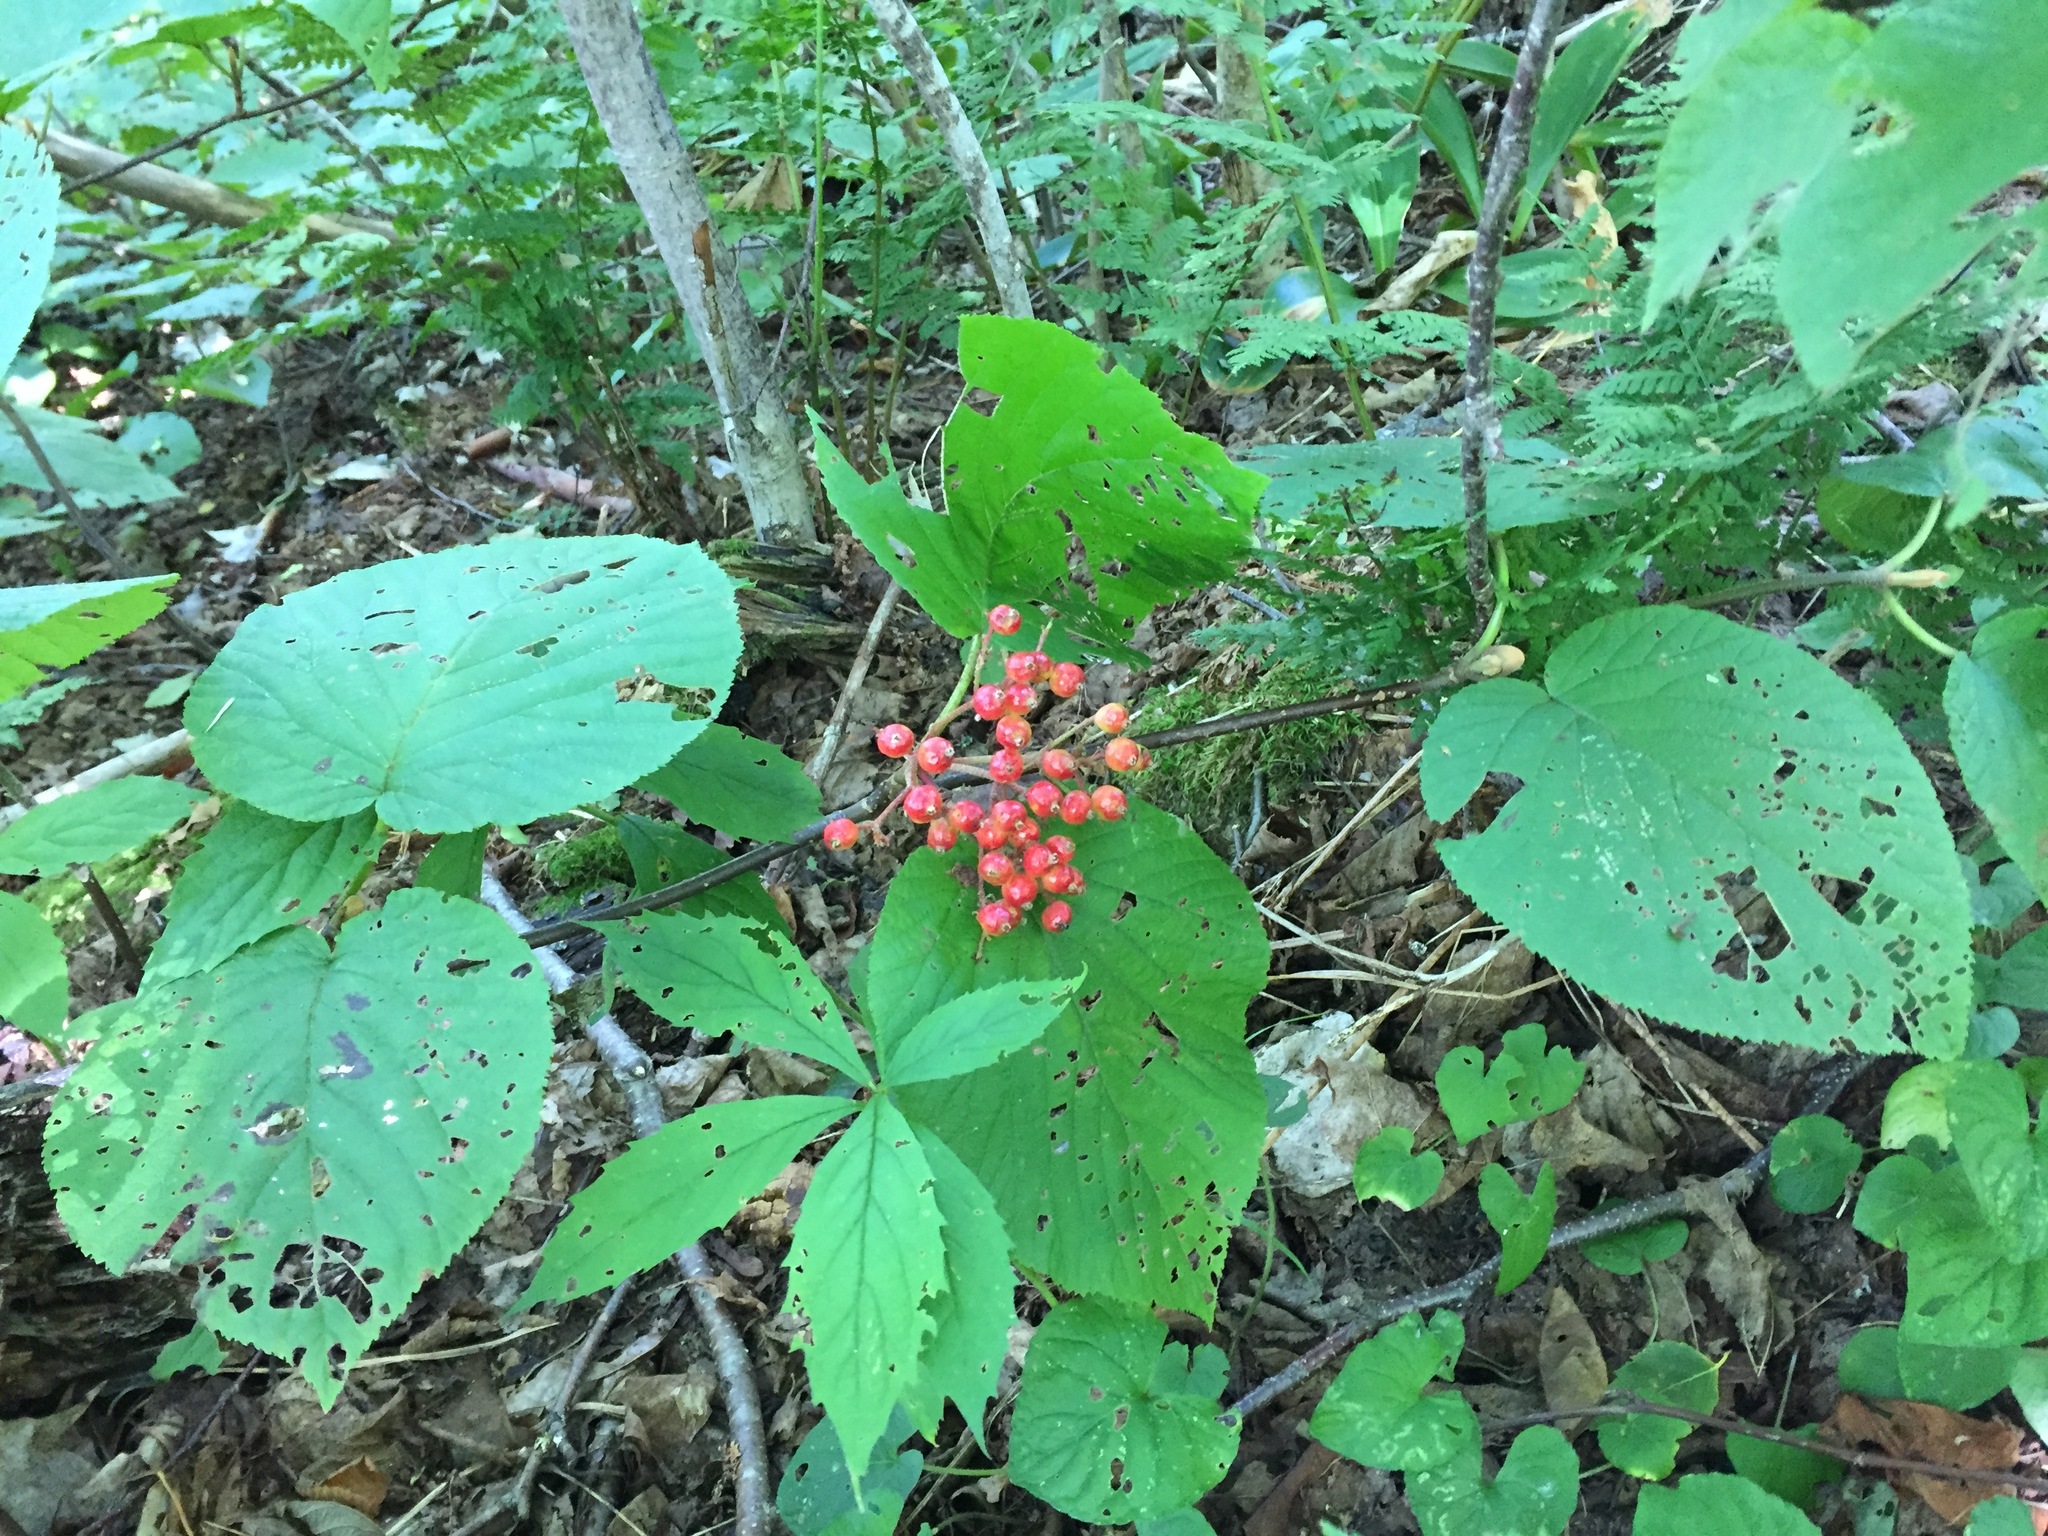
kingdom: Plantae
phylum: Tracheophyta
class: Magnoliopsida
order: Dipsacales
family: Viburnaceae
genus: Viburnum
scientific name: Viburnum lantanoides
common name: Hobblebush
